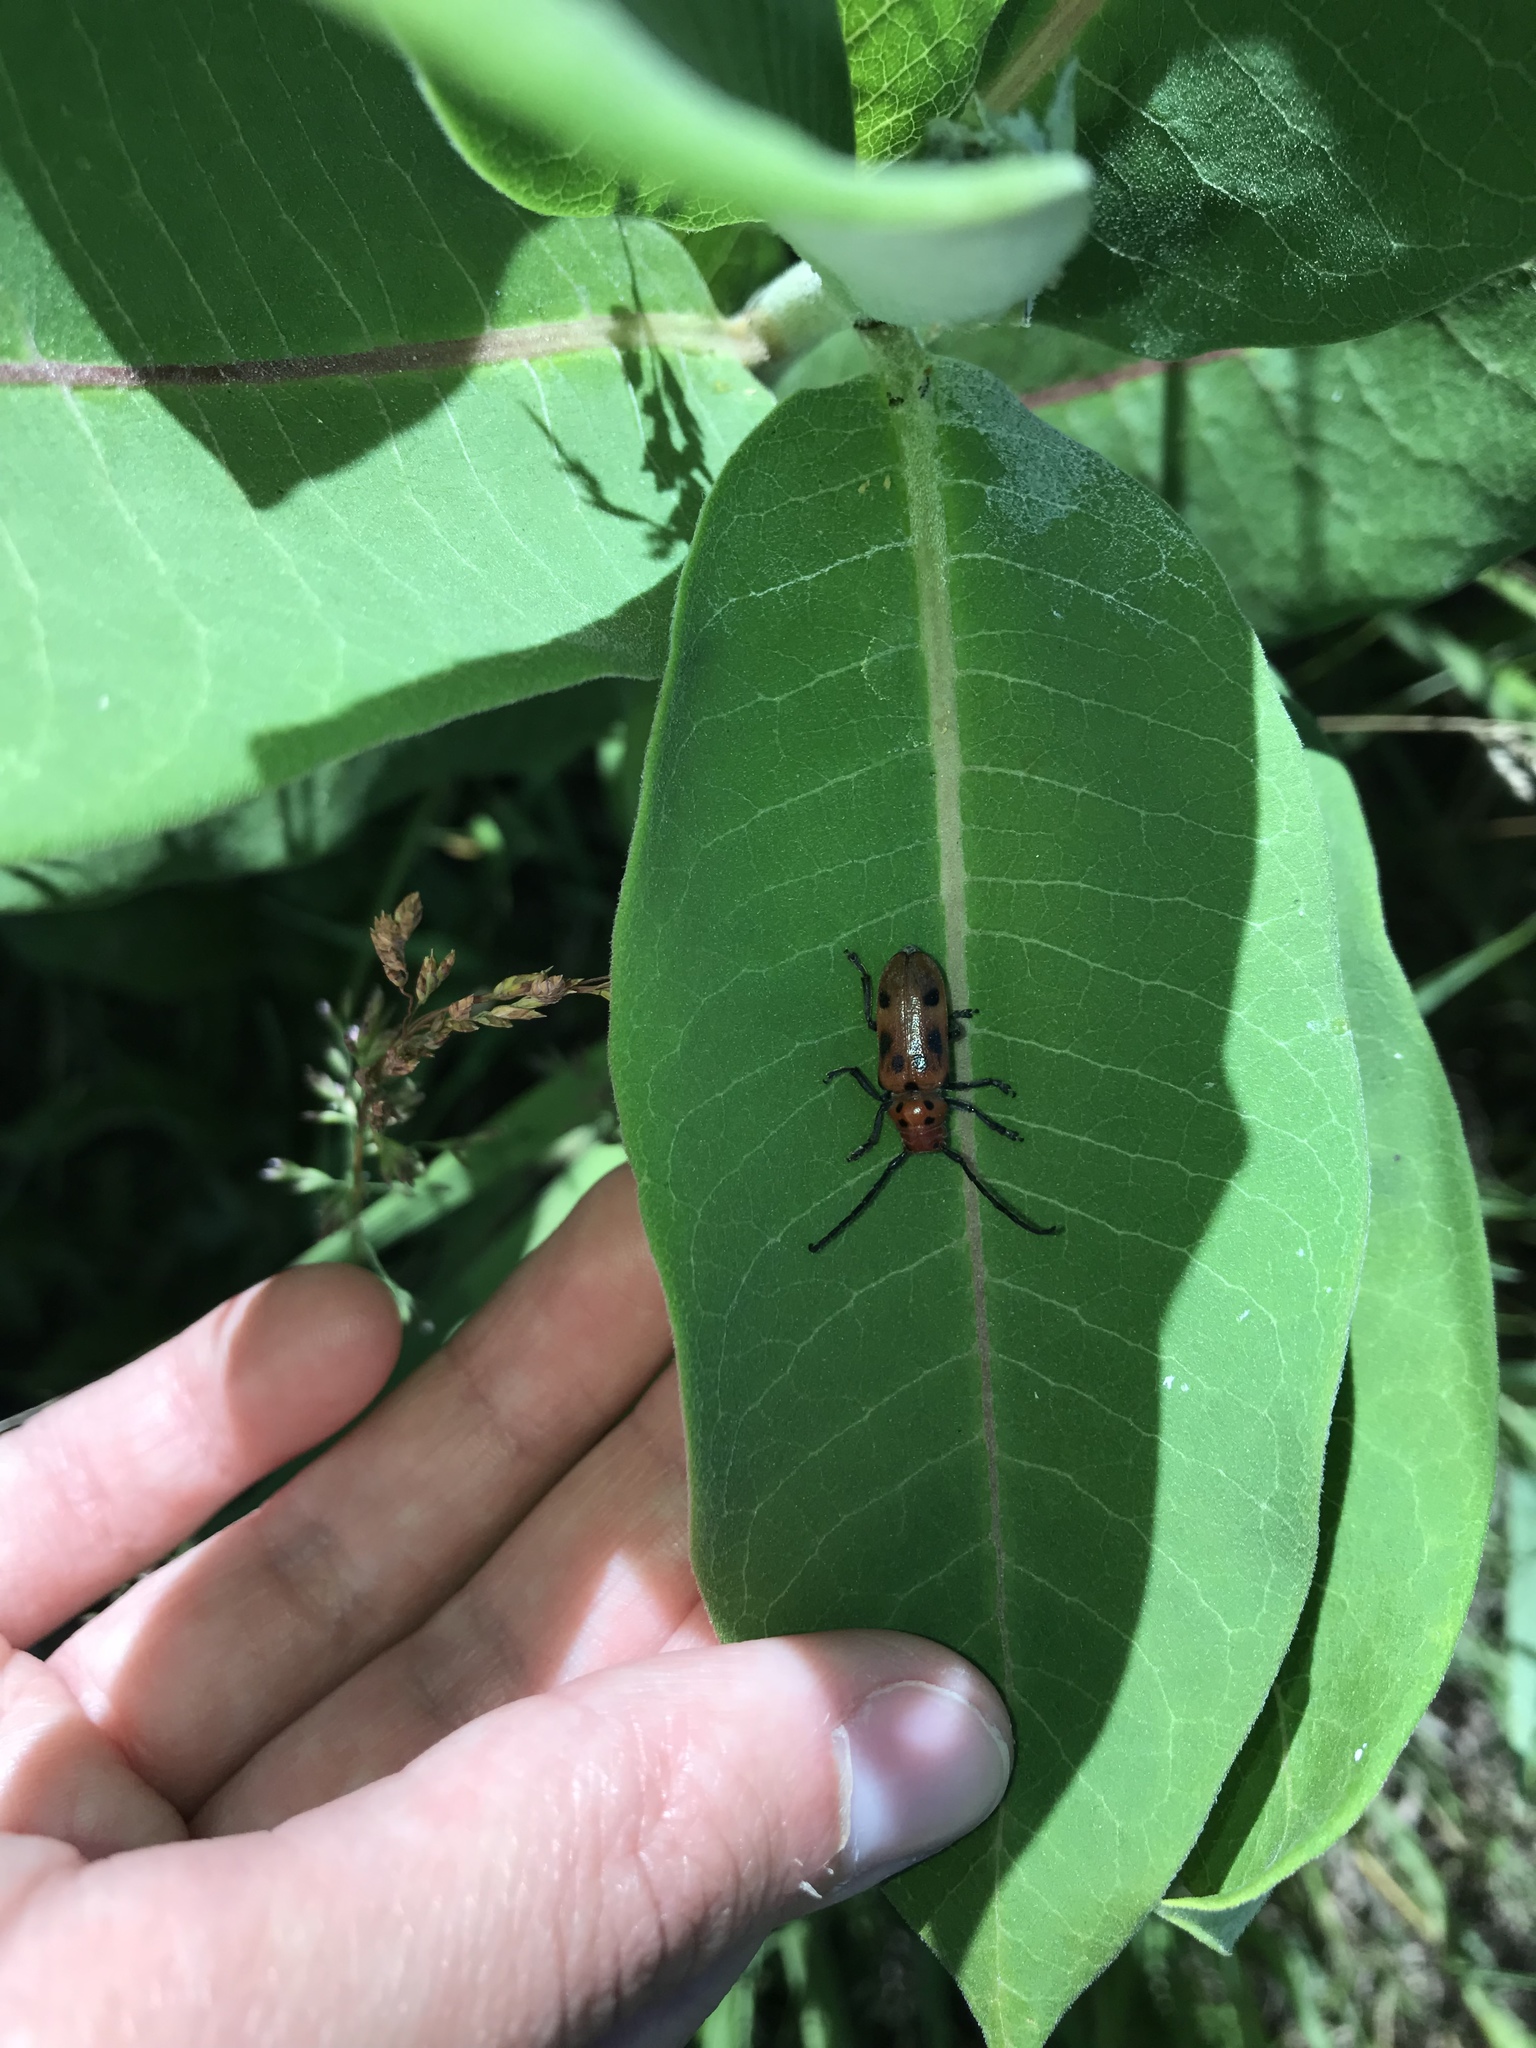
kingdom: Animalia
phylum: Arthropoda
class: Insecta
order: Coleoptera
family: Cerambycidae
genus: Tetraopes
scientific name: Tetraopes tetrophthalmus
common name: Red milkweed beetle
